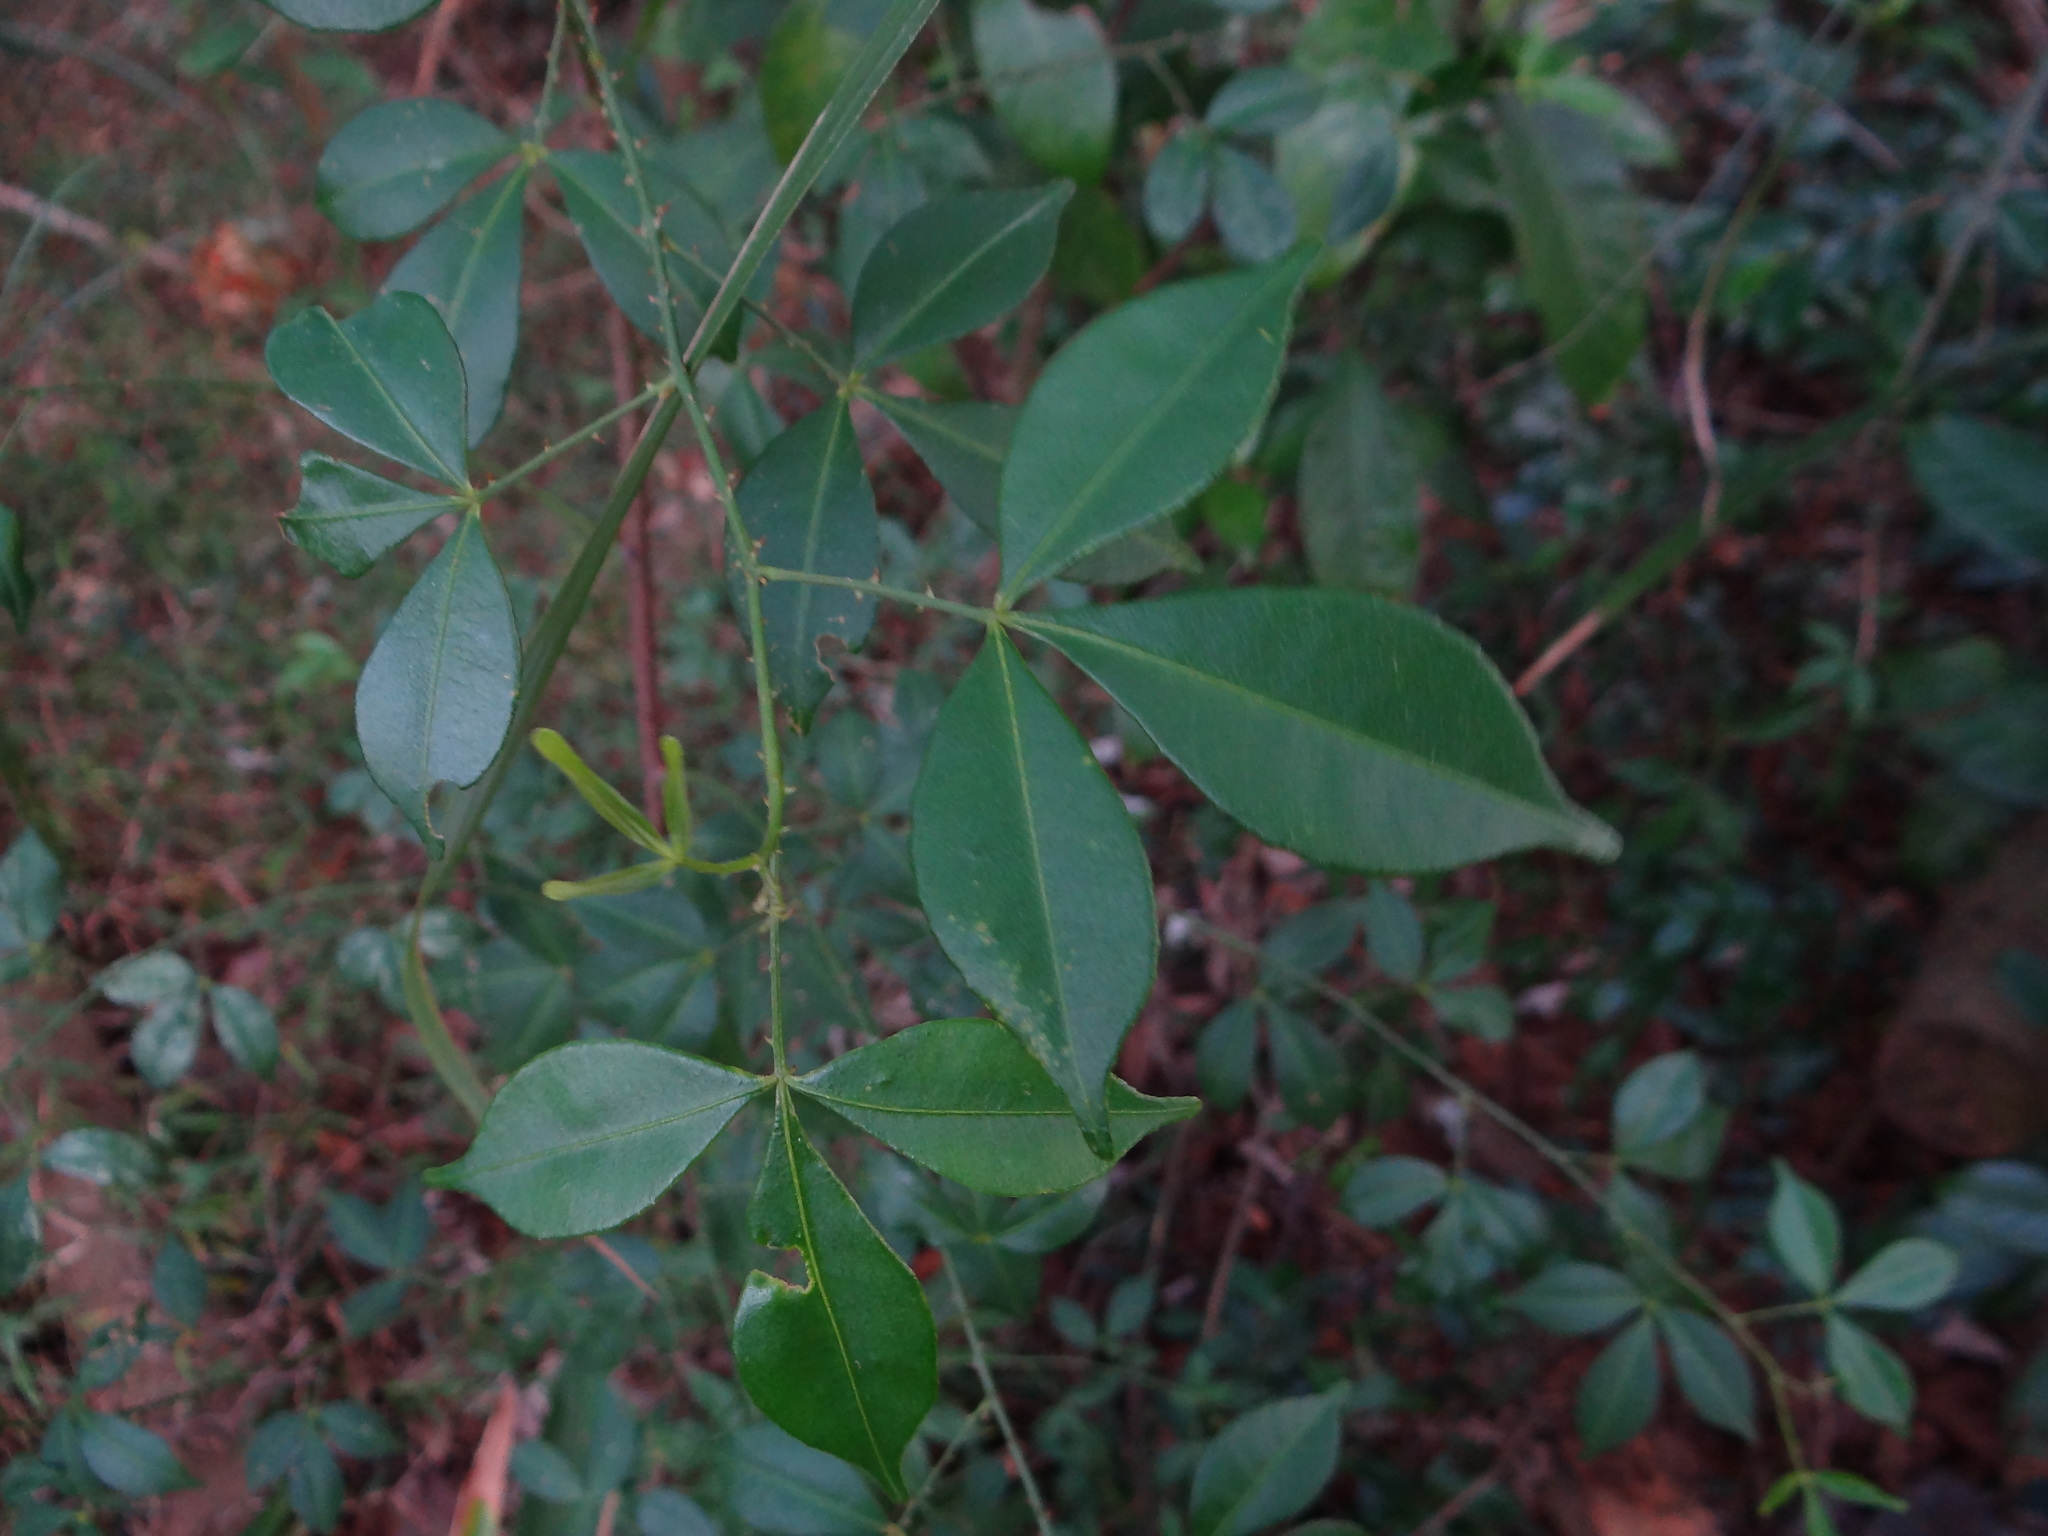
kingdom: Plantae
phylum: Tracheophyta
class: Magnoliopsida
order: Sapindales
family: Rutaceae
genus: Zanthoxylum
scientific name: Zanthoxylum asiaticum
